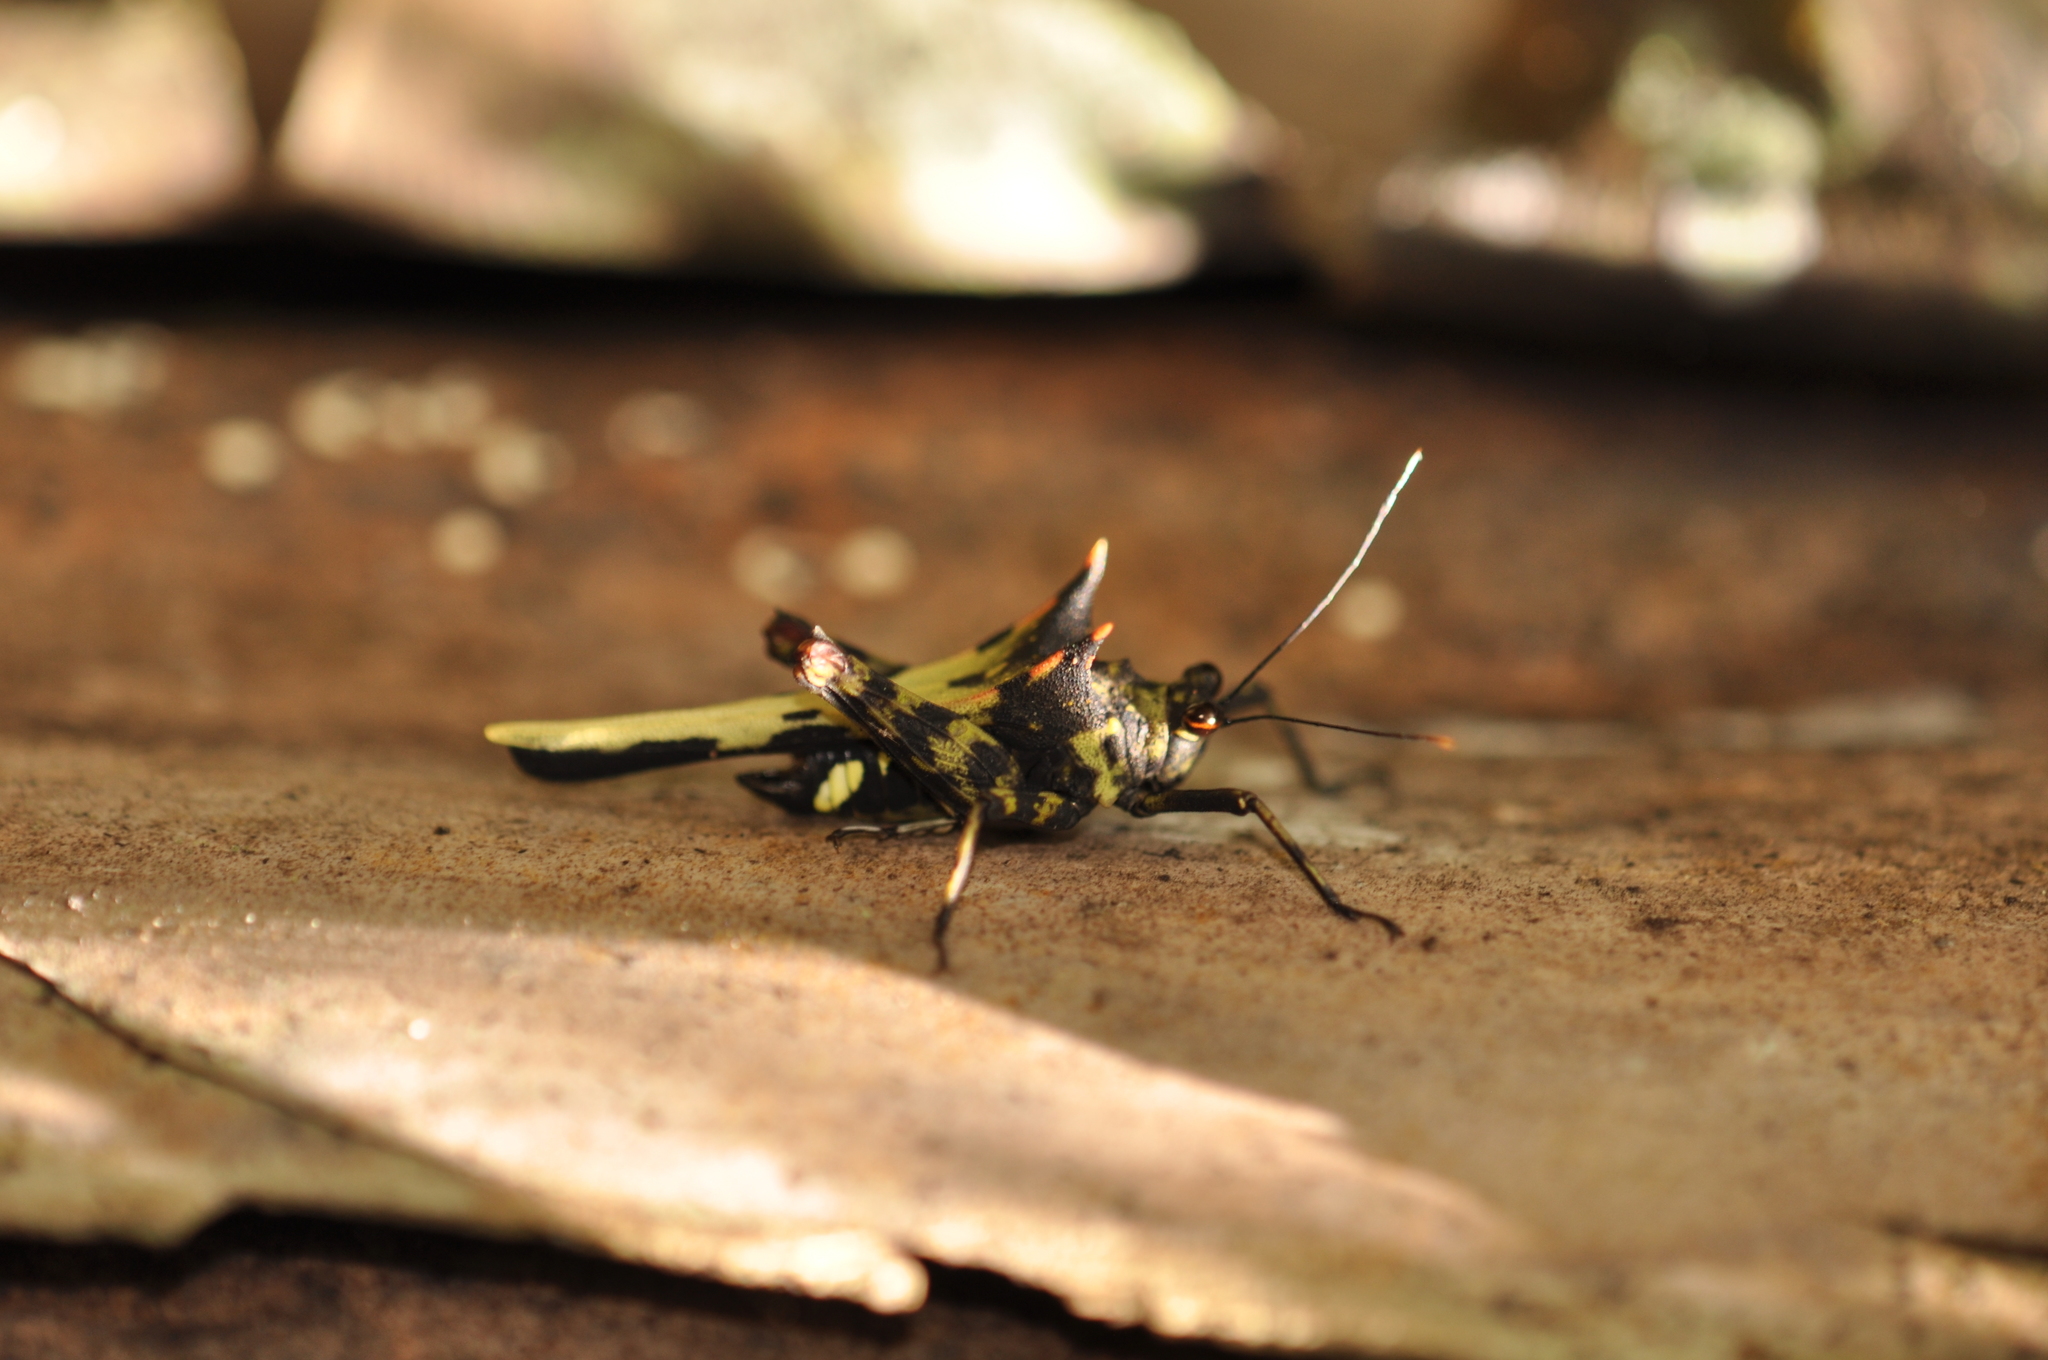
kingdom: Animalia
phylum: Arthropoda
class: Insecta
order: Orthoptera
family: Tetrigidae
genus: Holocerus
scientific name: Holocerus devriesei
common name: Southern devil's pygmy grasshopper
